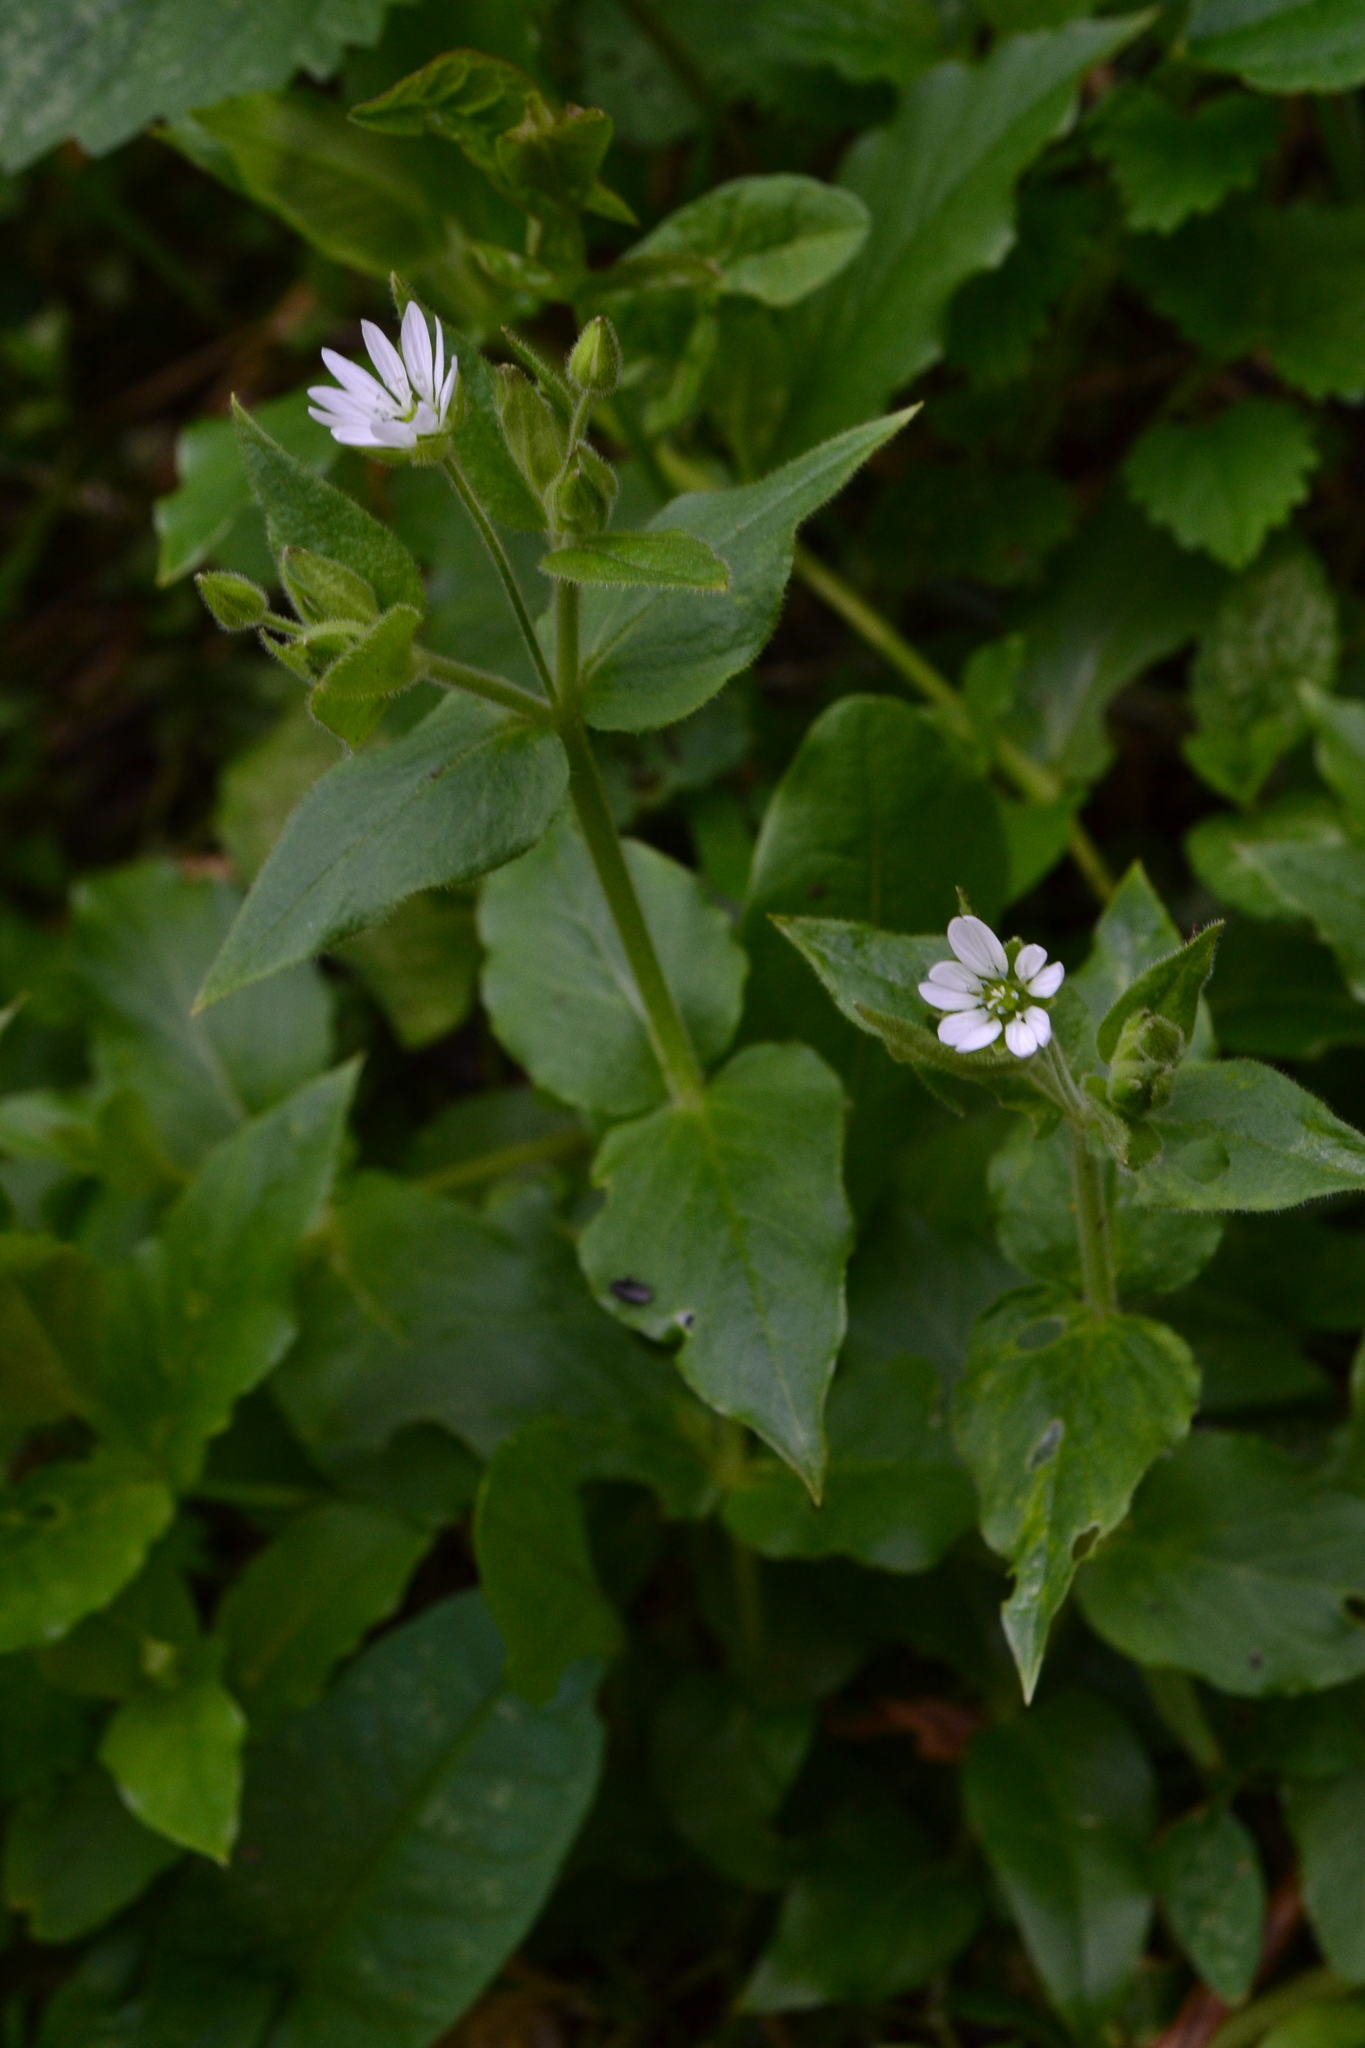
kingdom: Plantae
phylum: Tracheophyta
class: Magnoliopsida
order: Caryophyllales
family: Caryophyllaceae
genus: Stellaria
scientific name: Stellaria aquatica
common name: Water chickweed
